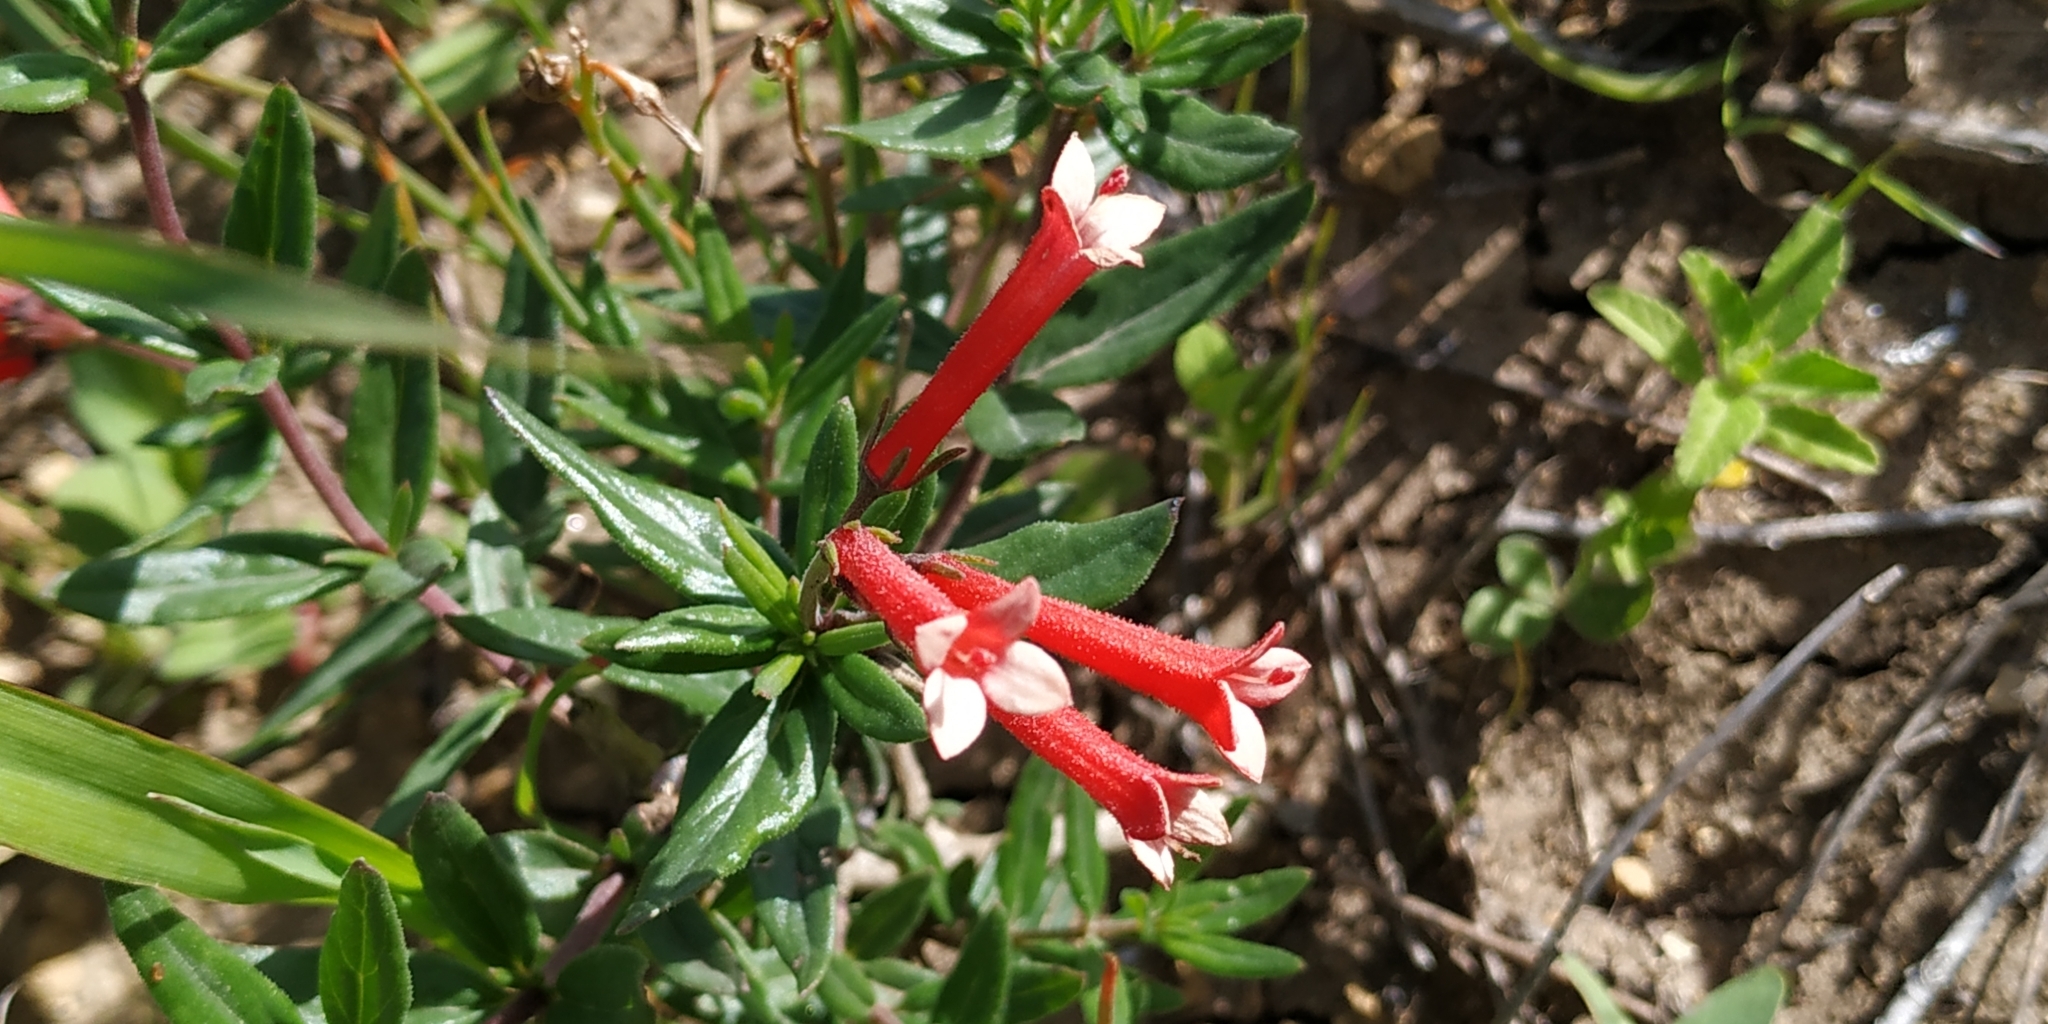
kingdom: Plantae
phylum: Tracheophyta
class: Magnoliopsida
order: Gentianales
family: Rubiaceae
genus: Bouvardia
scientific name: Bouvardia ternifolia
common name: Scarlet bouvardia
